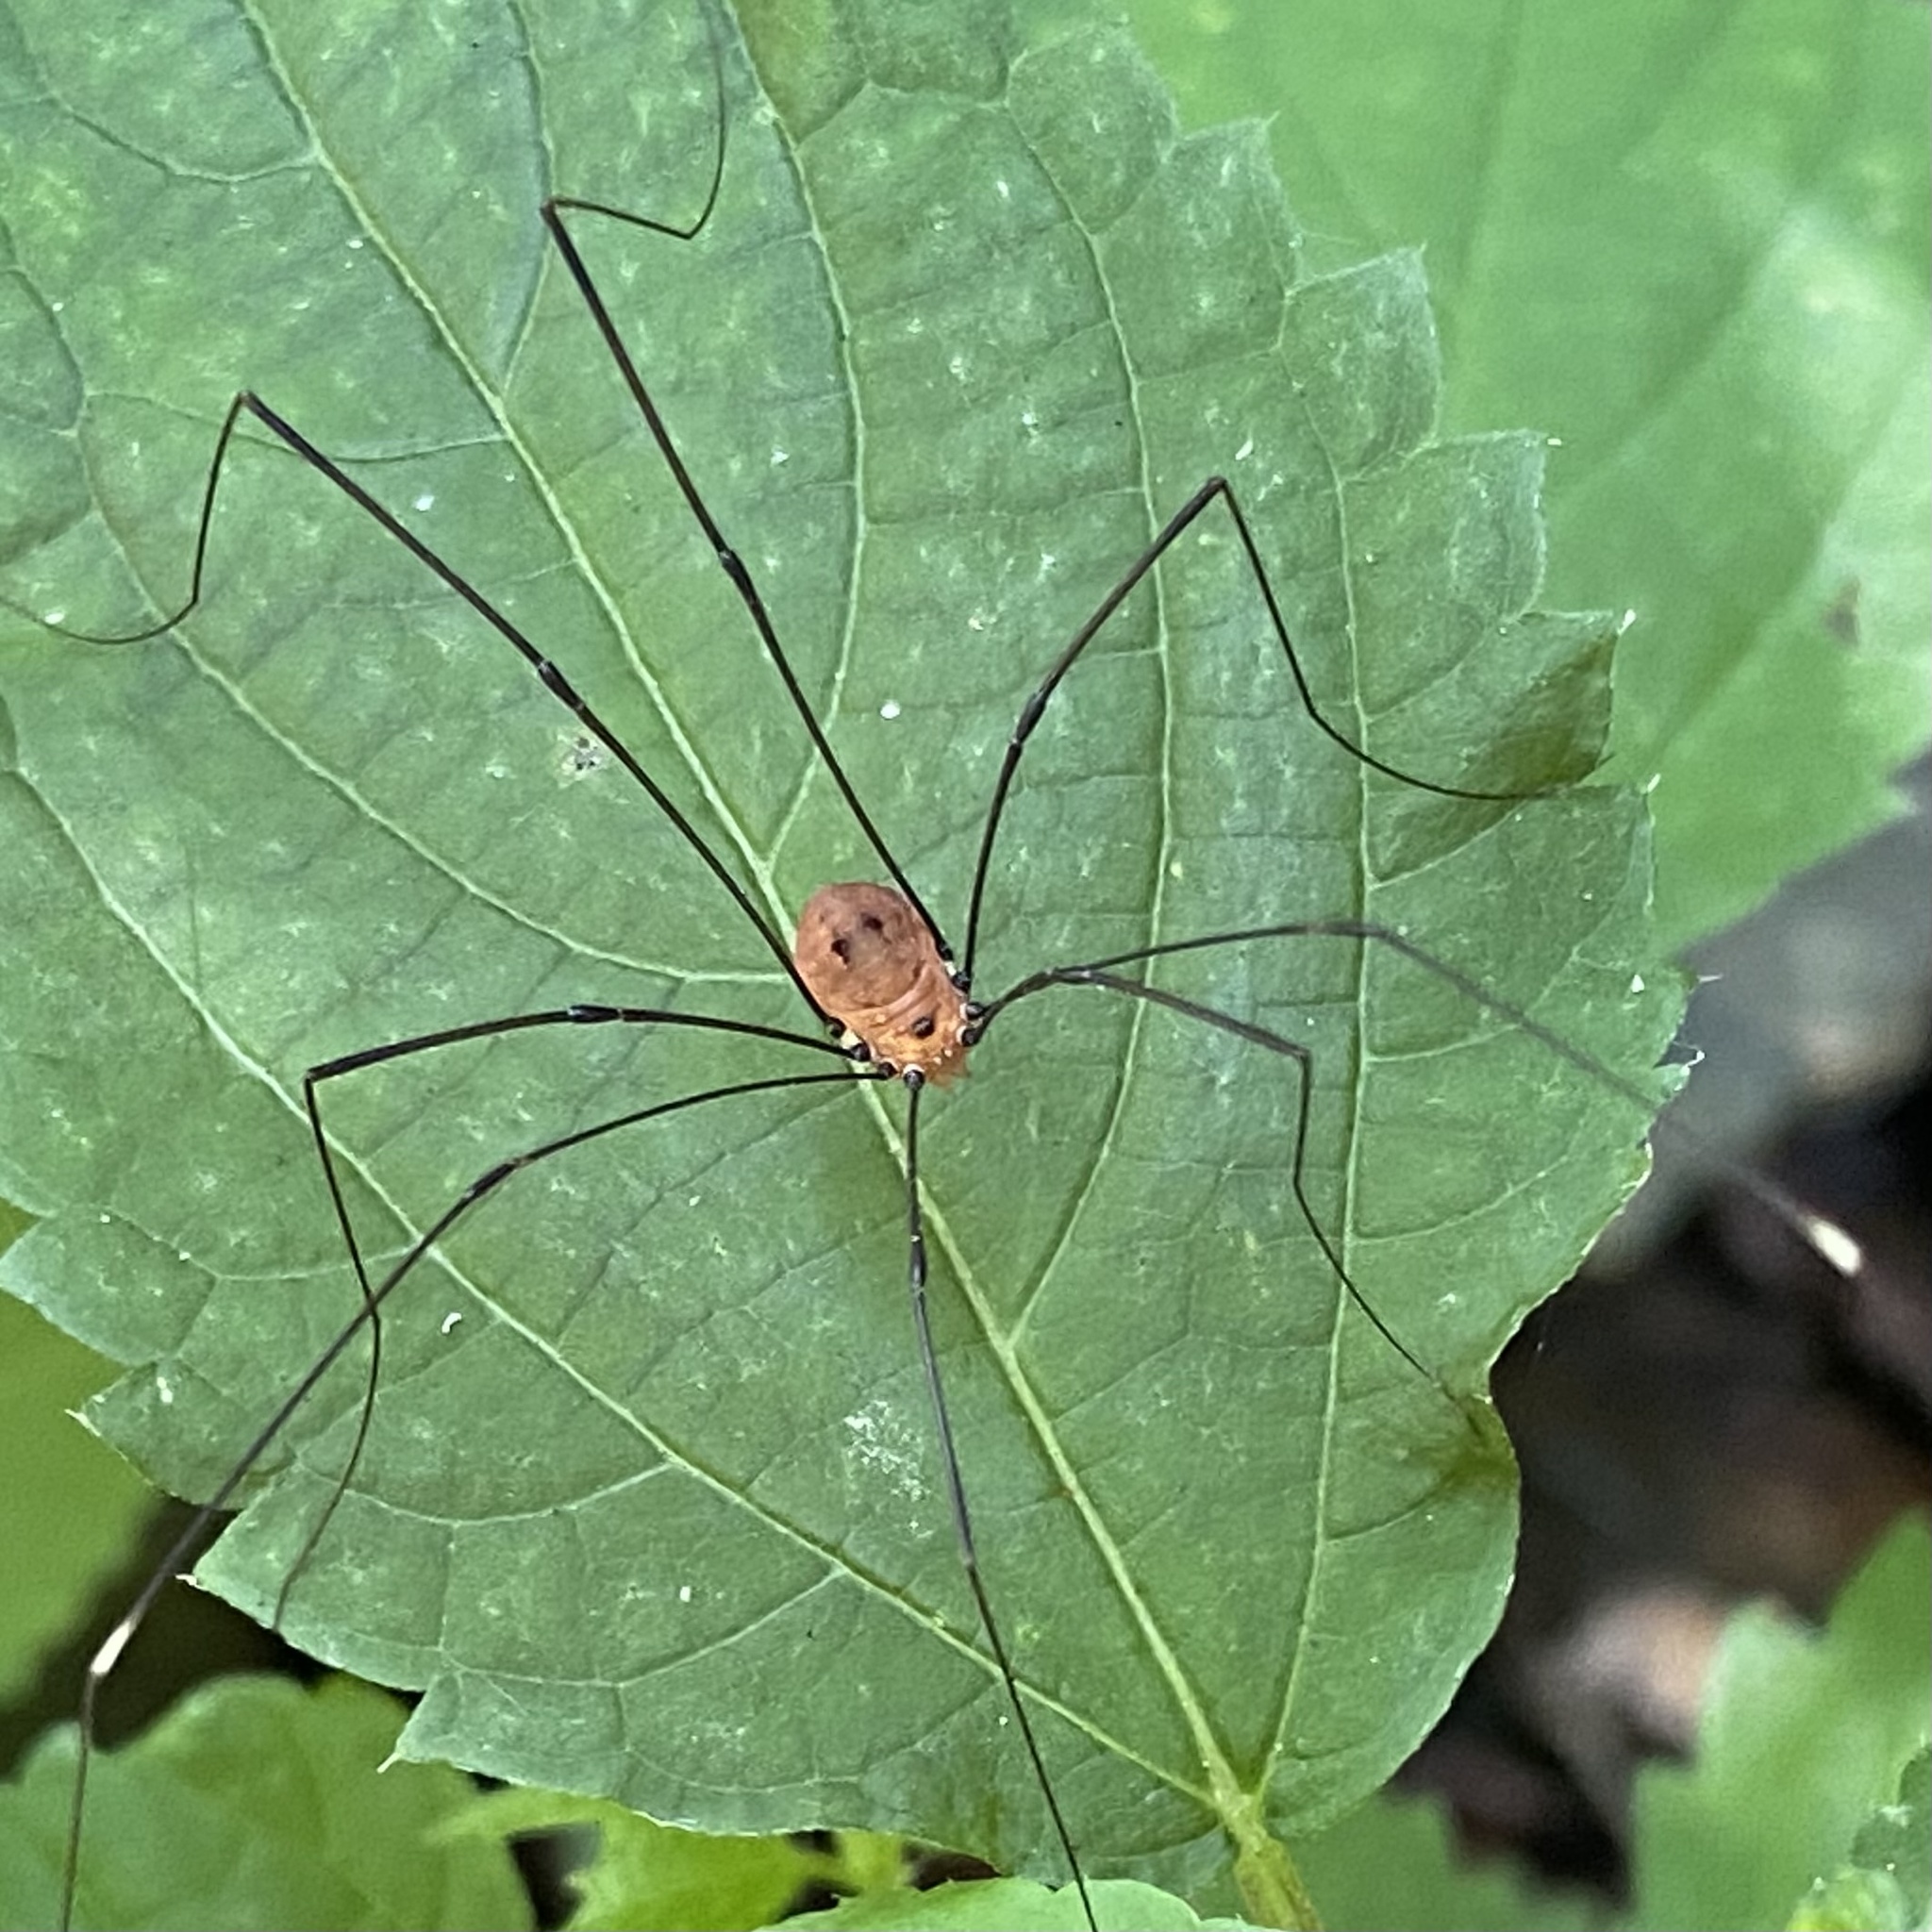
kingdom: Animalia
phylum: Arthropoda
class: Arachnida
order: Opiliones
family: Sclerosomatidae
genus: Leiobunum
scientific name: Leiobunum aldrichi
